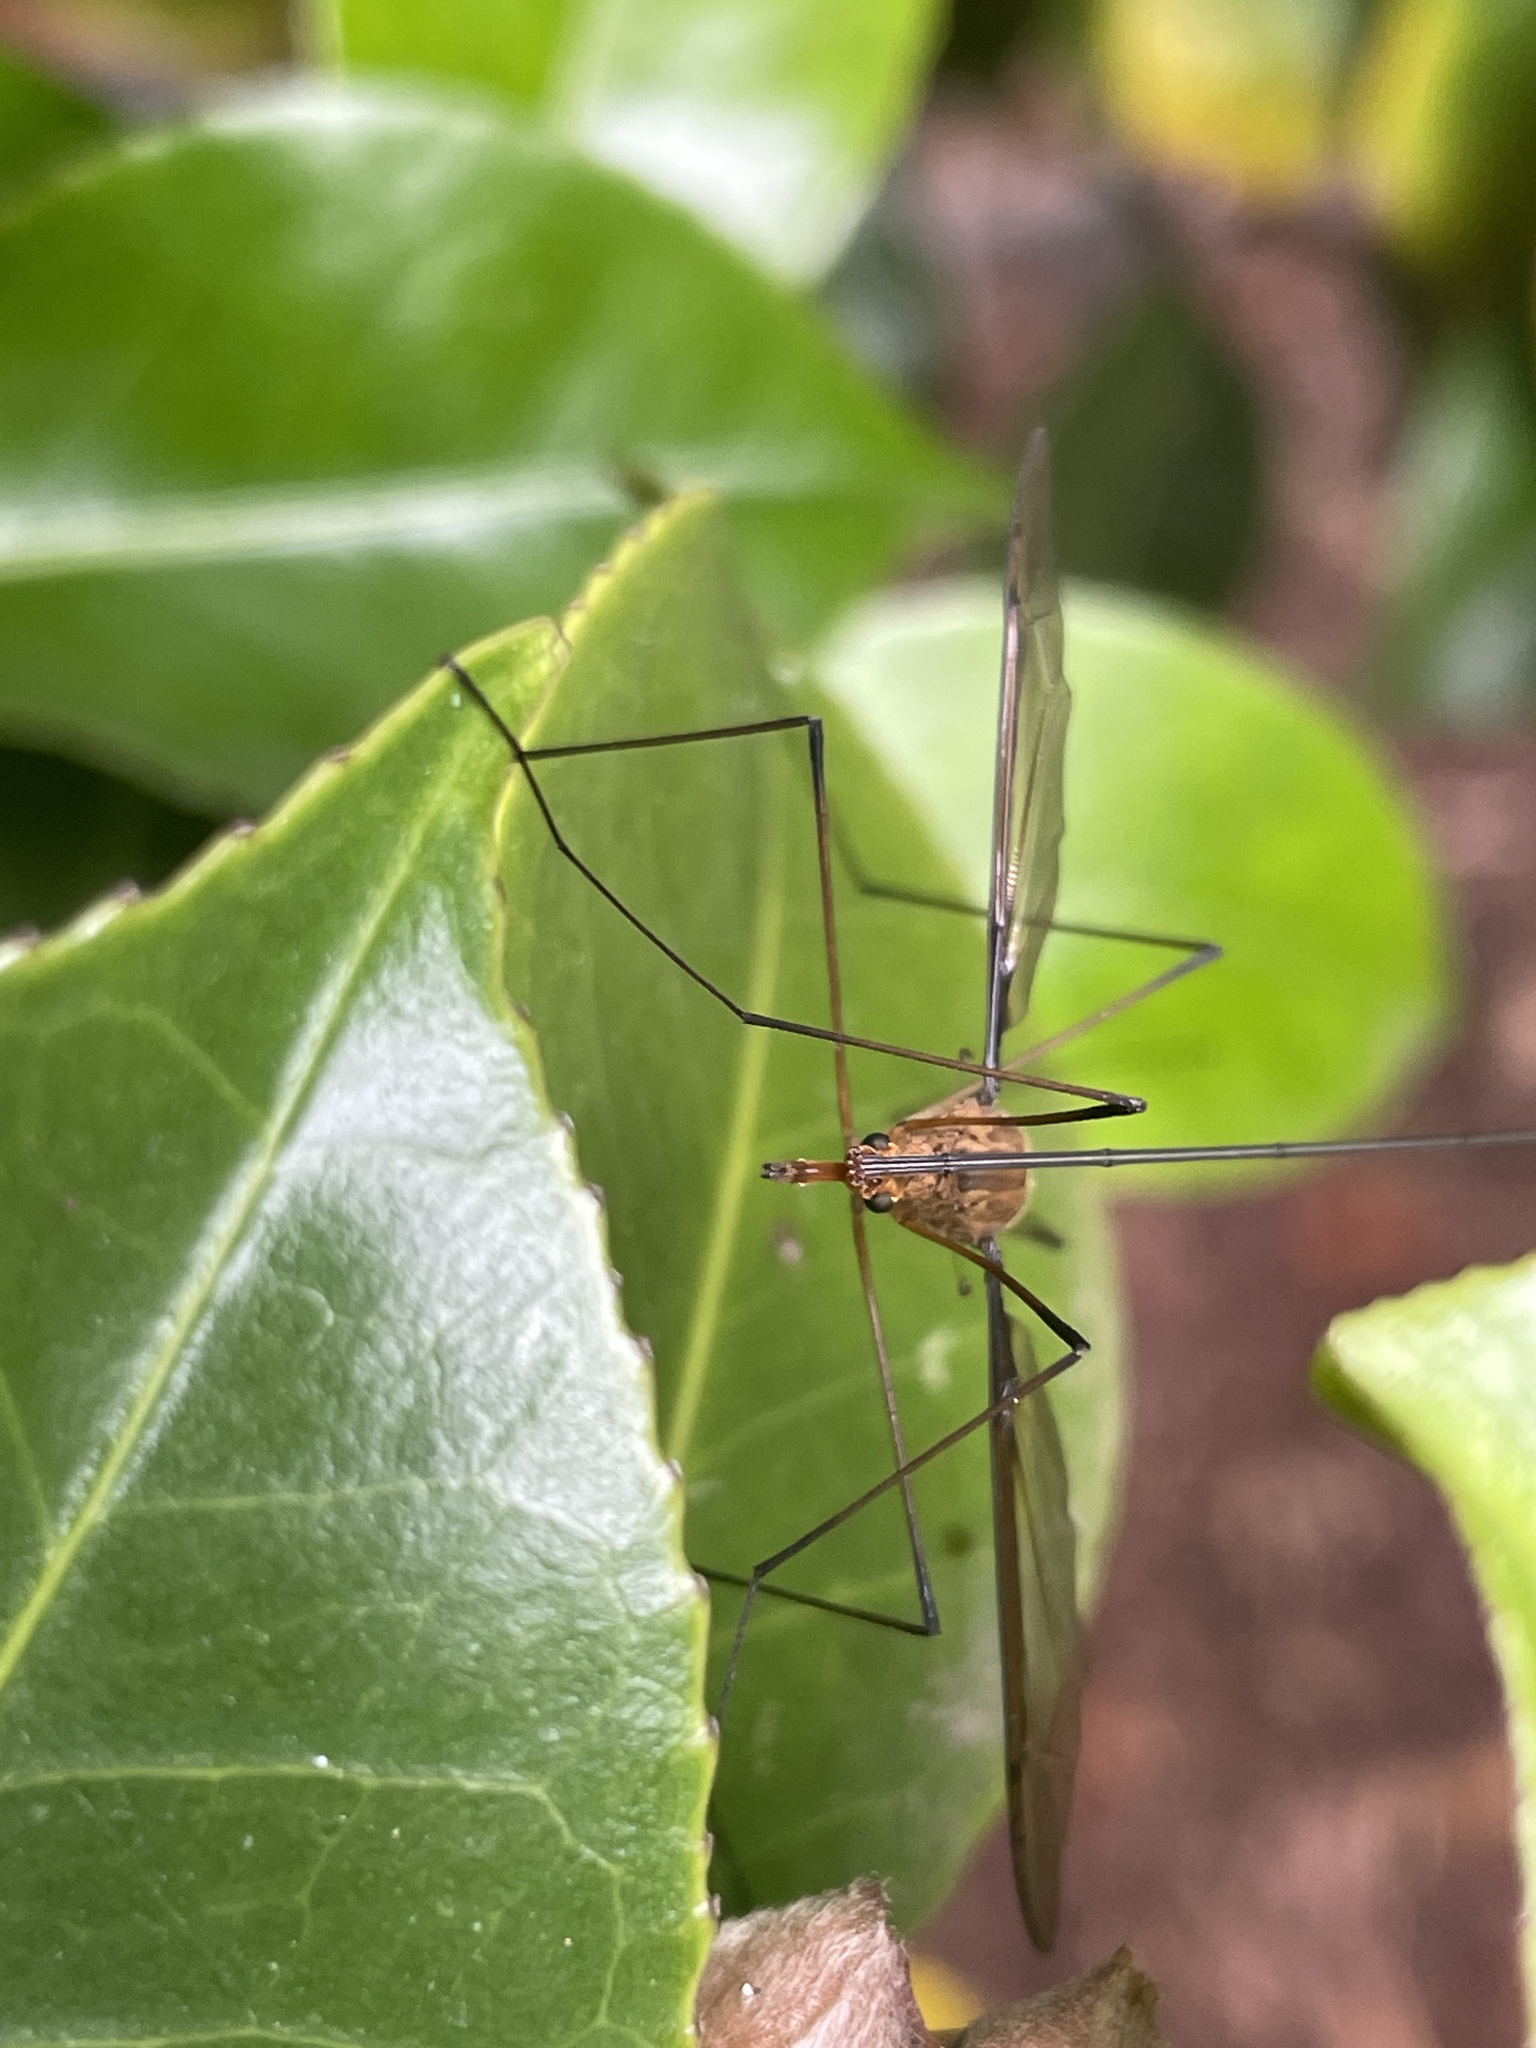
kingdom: Animalia
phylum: Arthropoda
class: Insecta
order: Diptera
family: Tipulidae
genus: Leptotarsus
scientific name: Leptotarsus costalis
